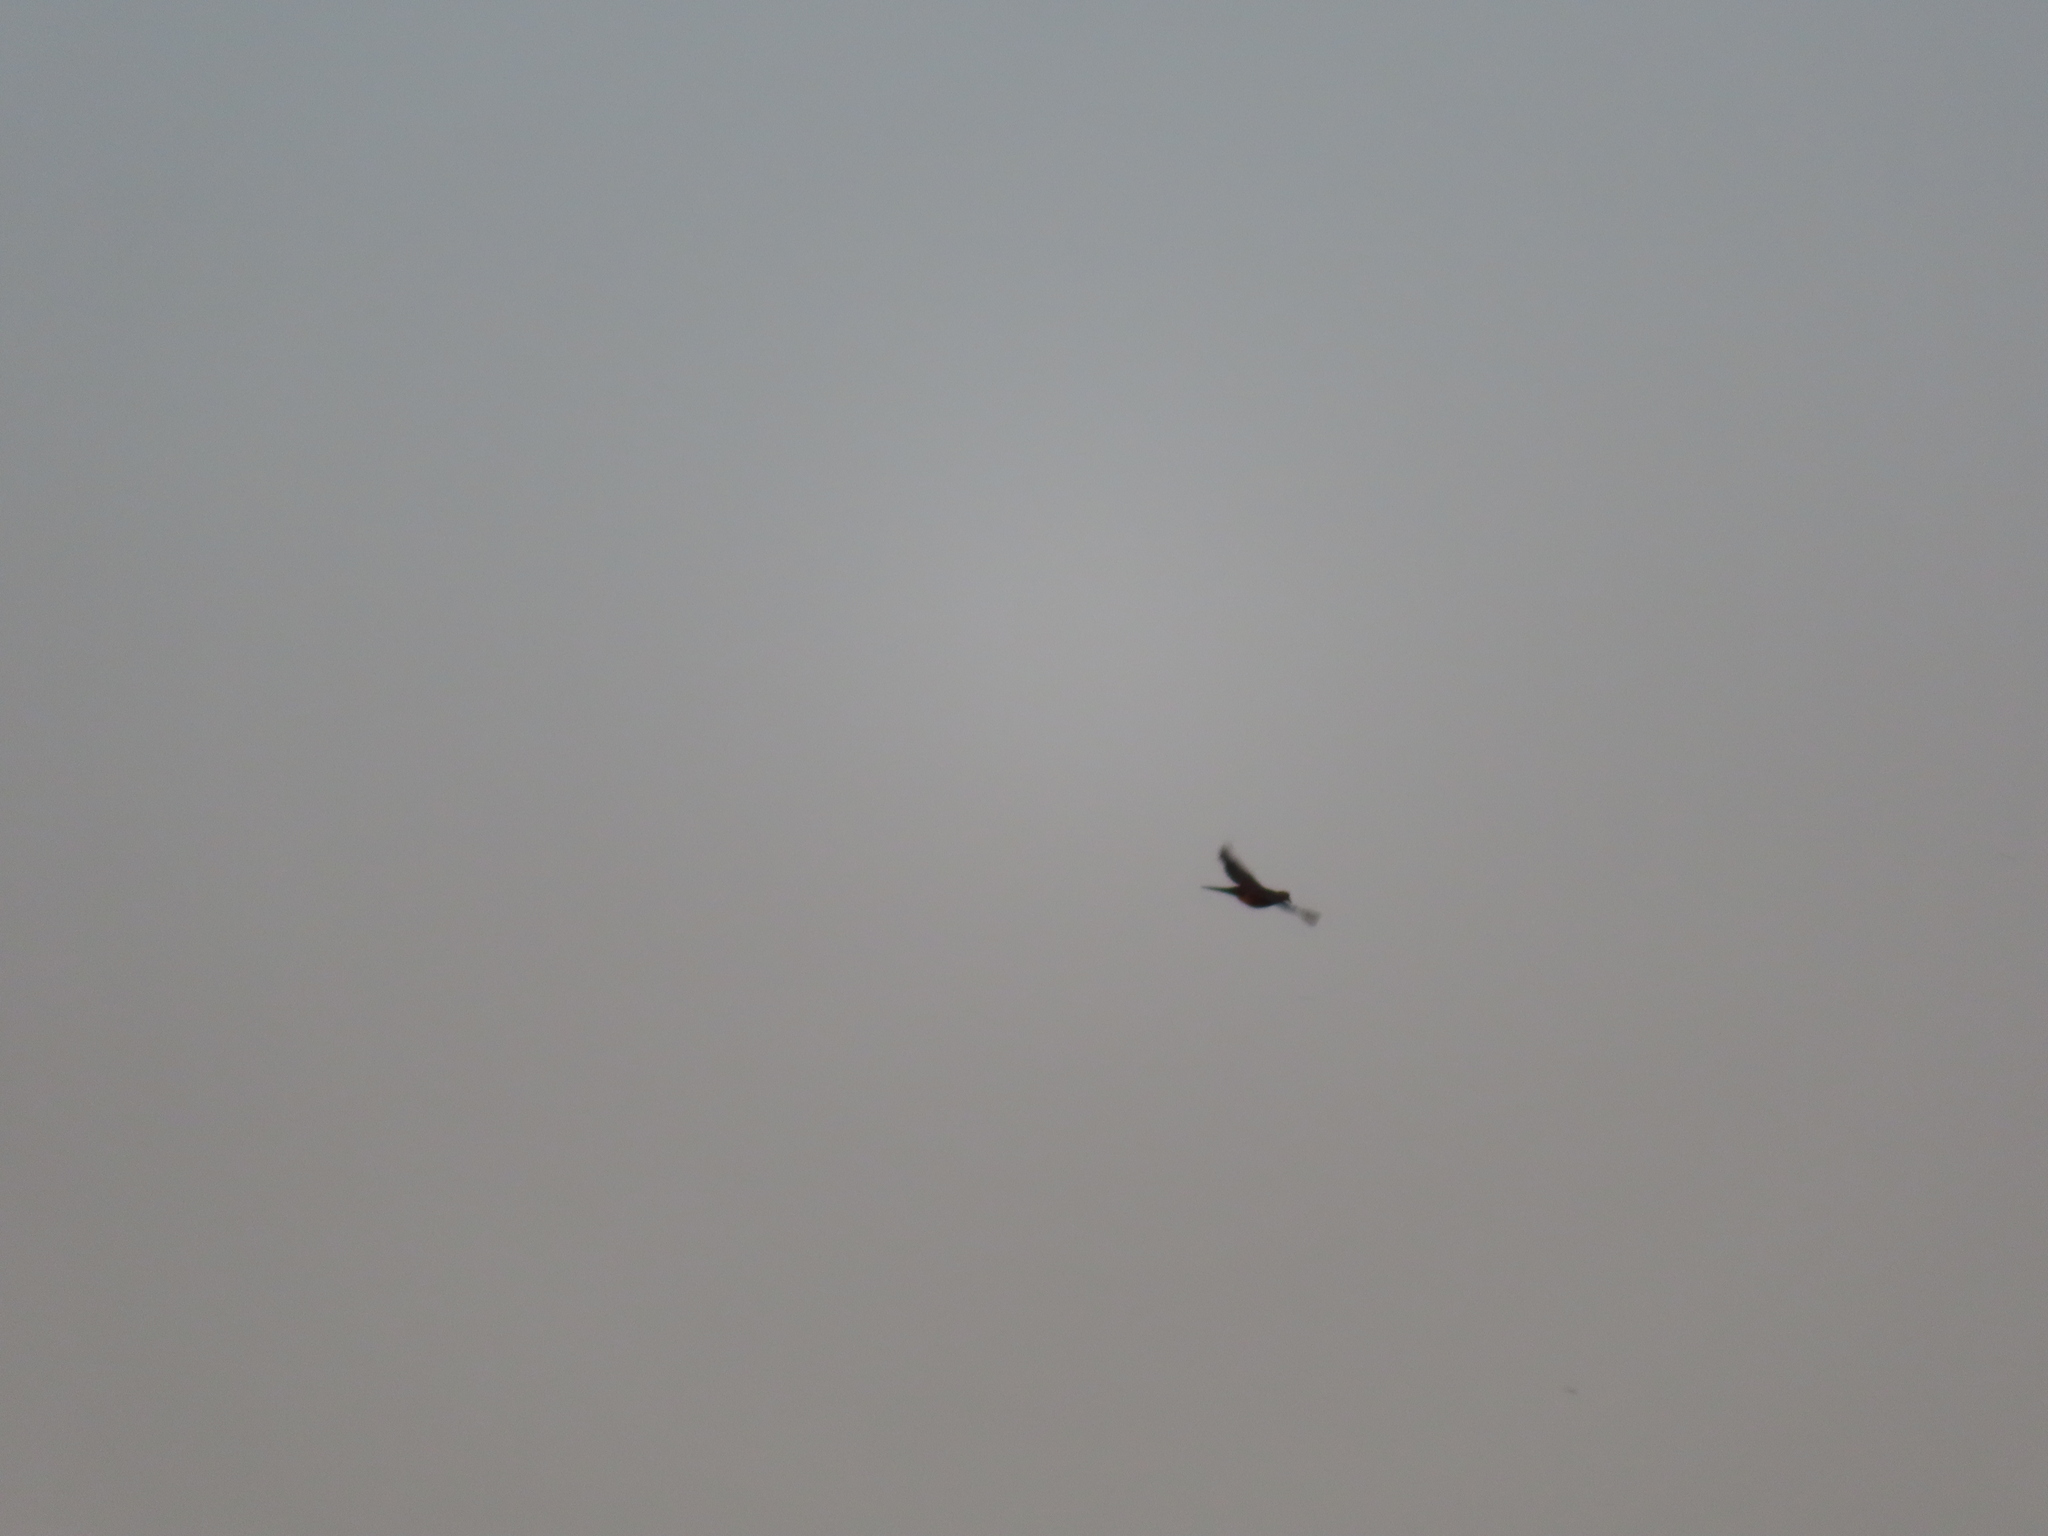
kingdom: Animalia
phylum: Chordata
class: Aves
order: Columbiformes
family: Columbidae
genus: Zenaida
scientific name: Zenaida macroura
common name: Mourning dove
